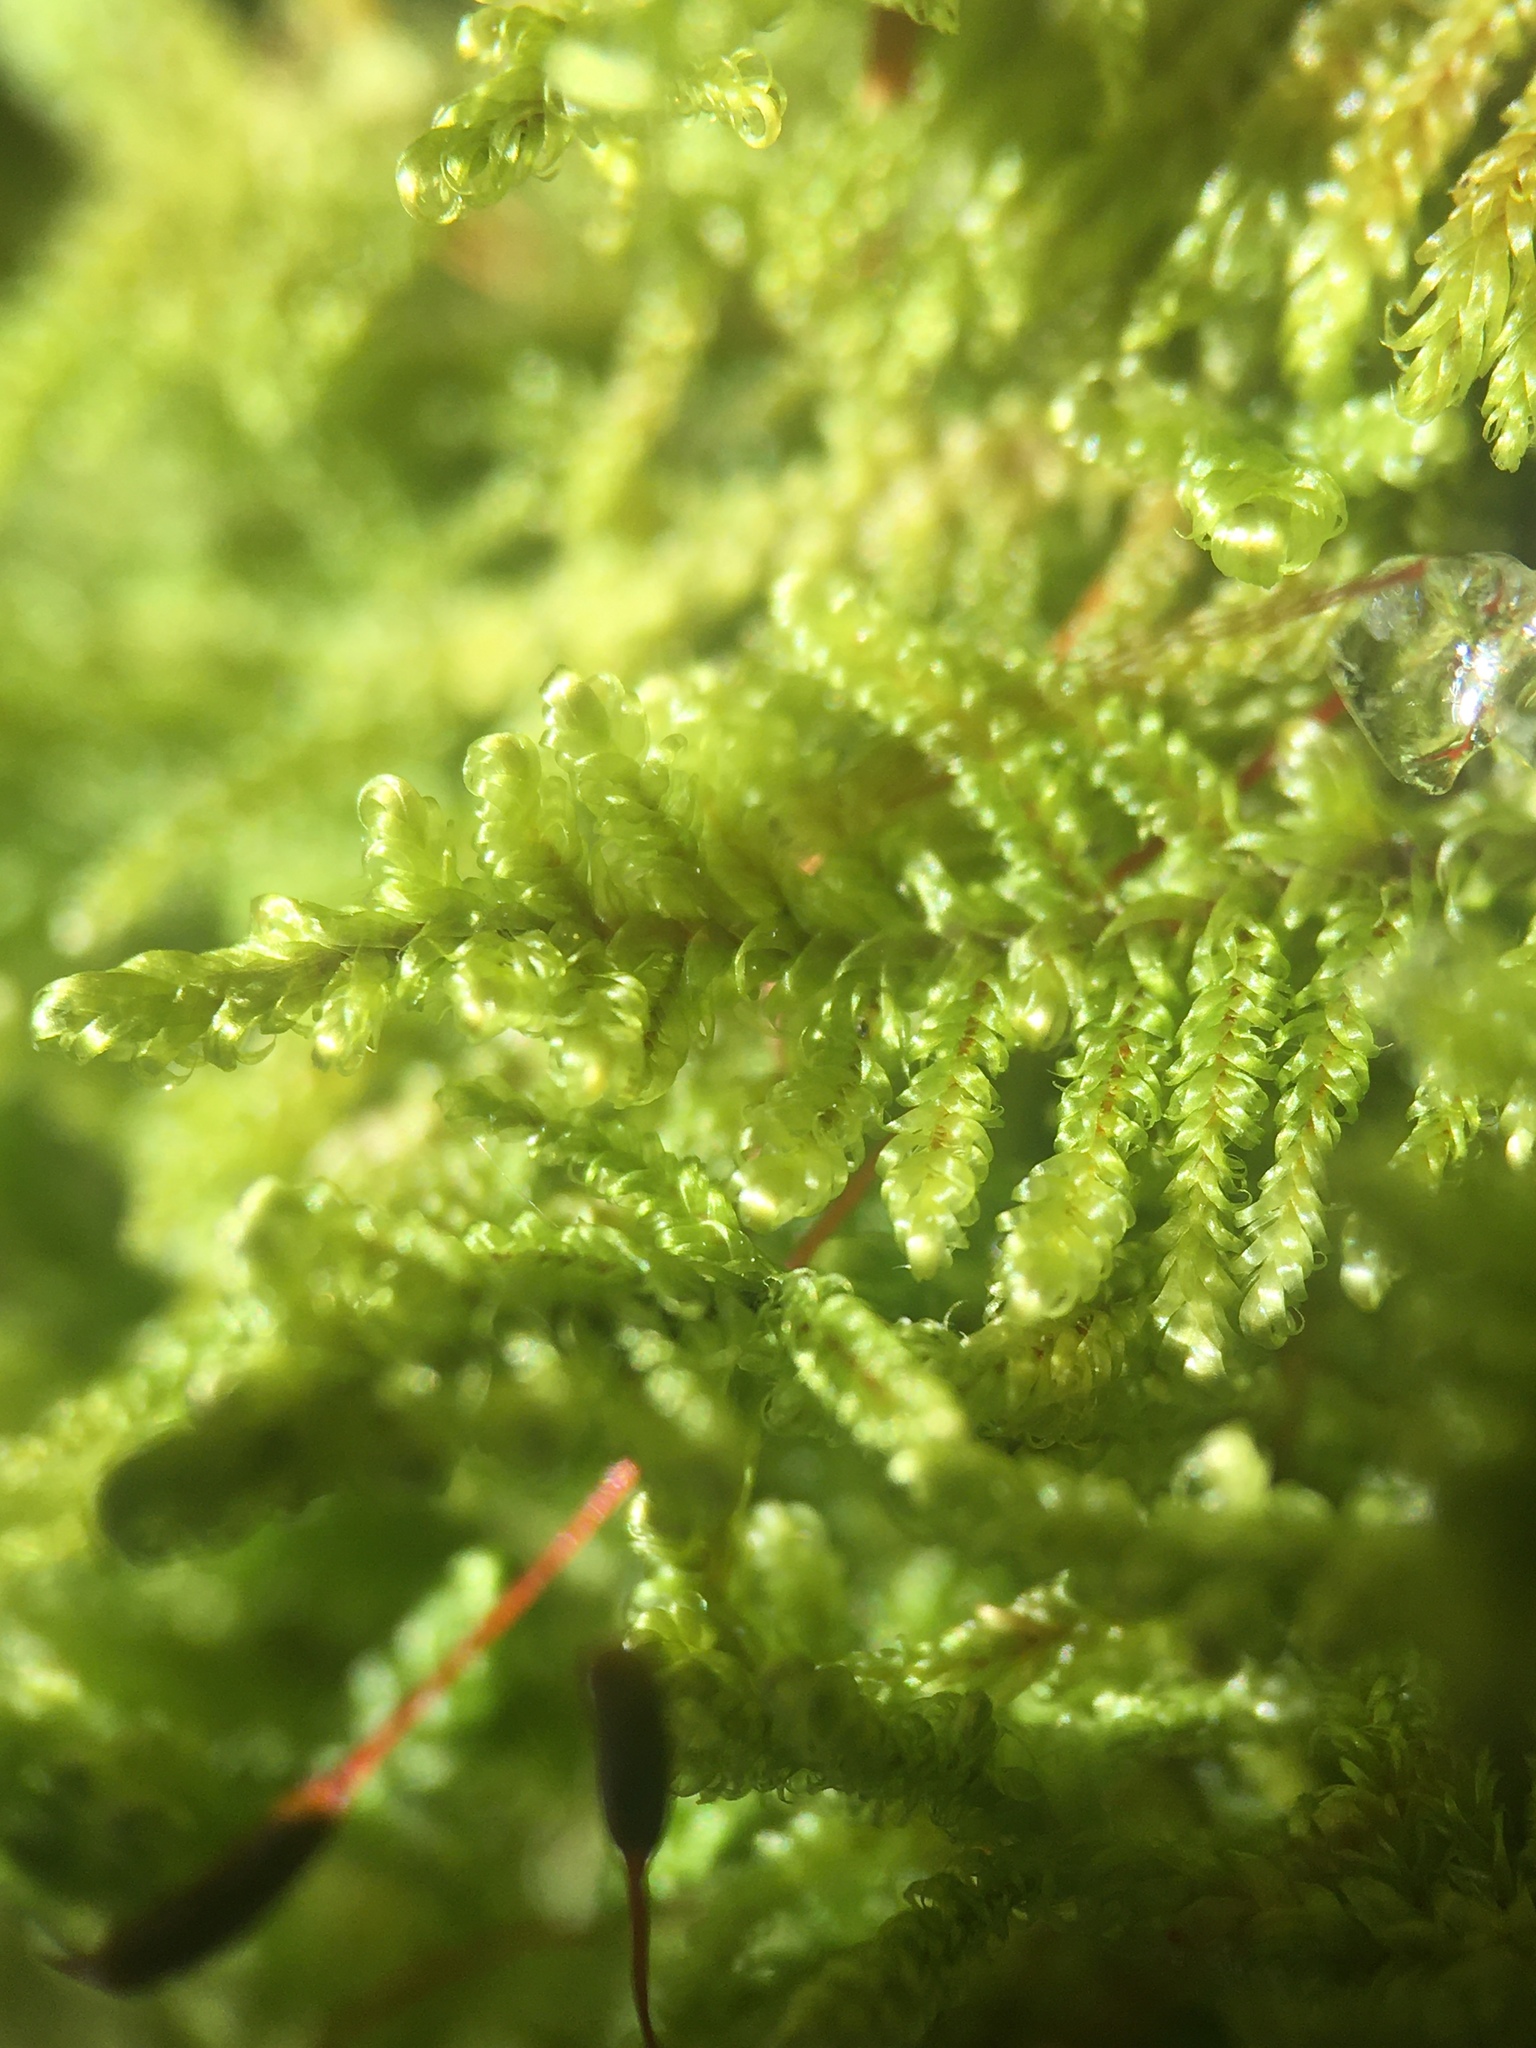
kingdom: Plantae
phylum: Bryophyta
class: Bryopsida
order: Hypnales
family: Callicladiaceae
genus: Callicladium
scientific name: Callicladium imponens
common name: Brocade moss
